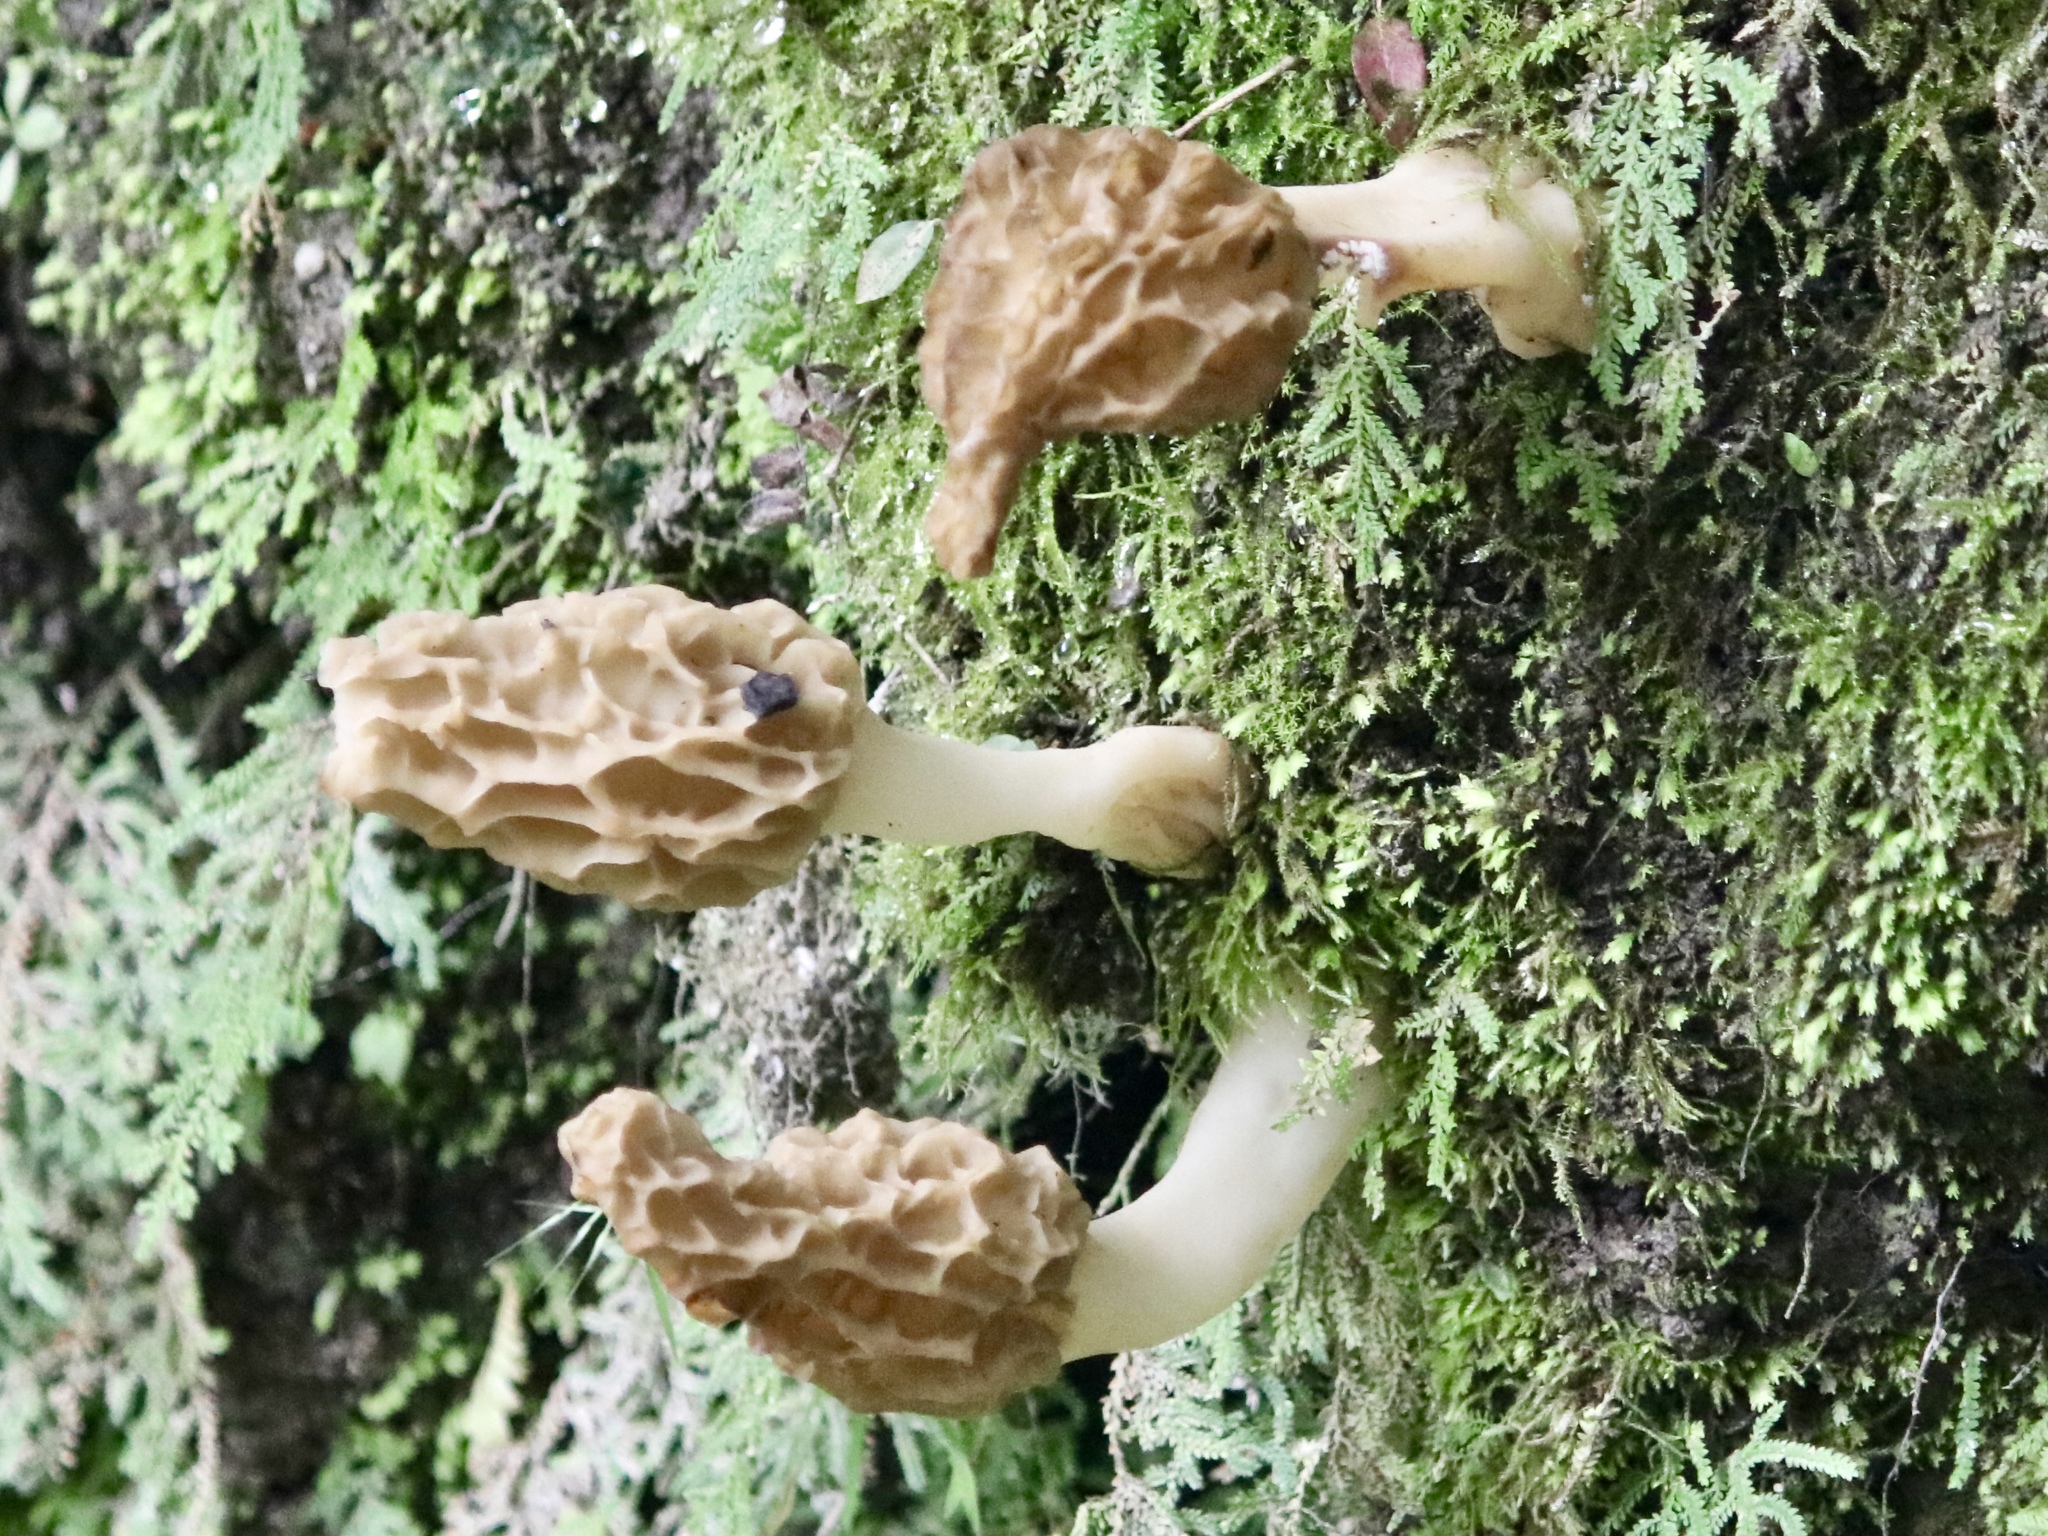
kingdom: Fungi
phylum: Ascomycota
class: Pezizomycetes
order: Pezizales
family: Morchellaceae
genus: Morchella
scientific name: Morchella
